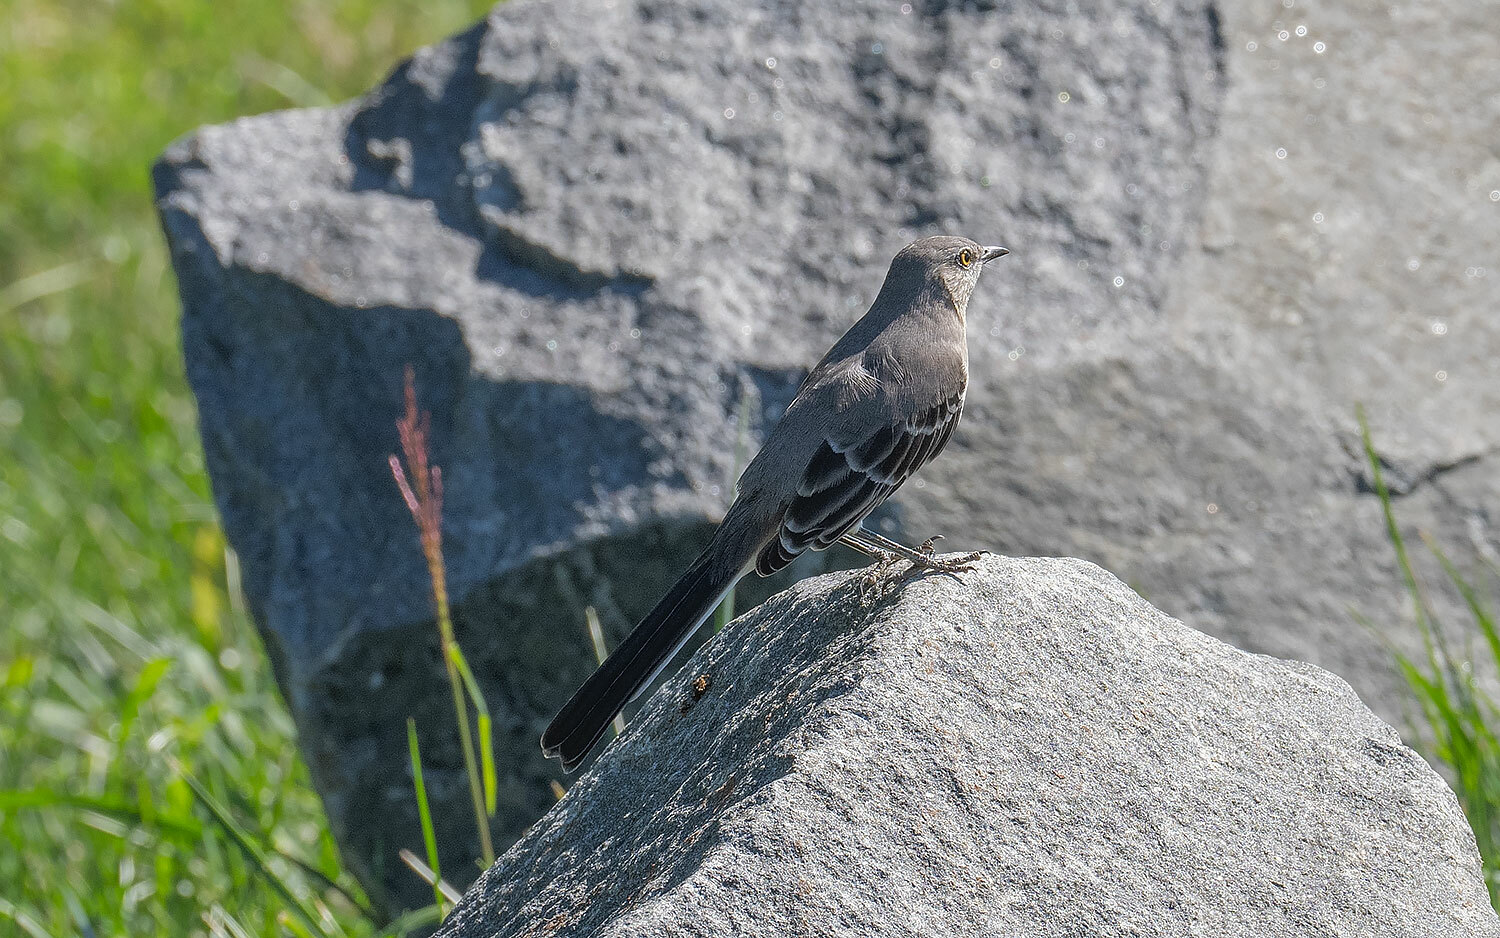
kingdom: Animalia
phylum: Chordata
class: Aves
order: Passeriformes
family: Mimidae
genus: Mimus
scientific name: Mimus polyglottos
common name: Northern mockingbird
